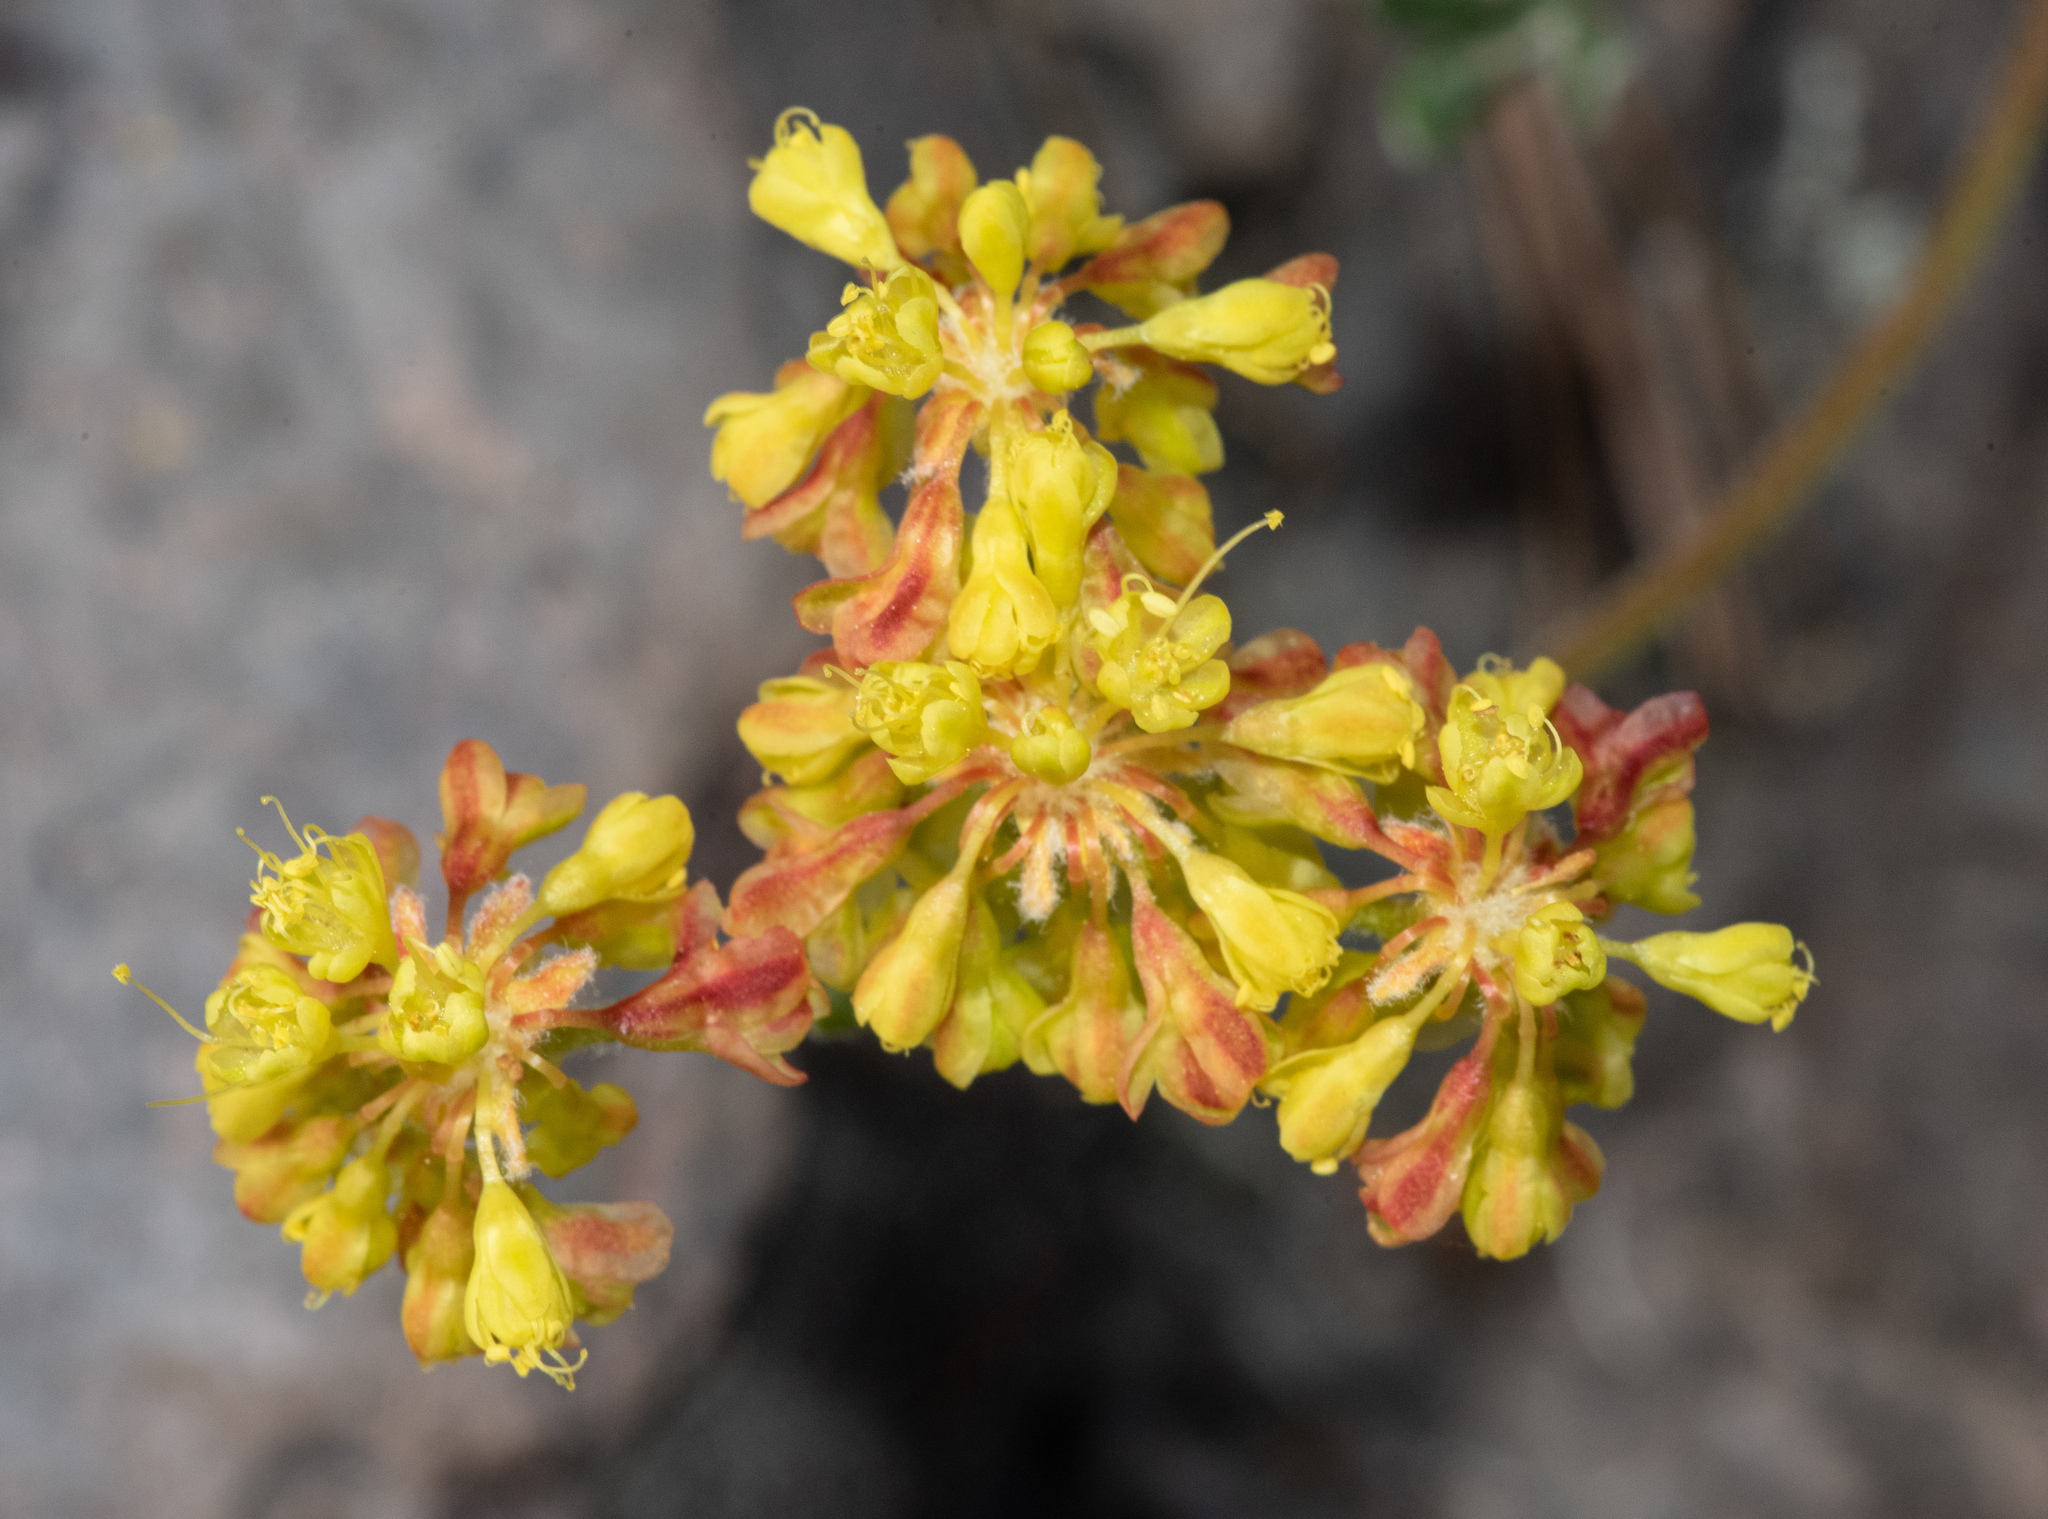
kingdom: Plantae
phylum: Tracheophyta
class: Magnoliopsida
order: Caryophyllales
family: Polygonaceae
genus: Eriogonum
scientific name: Eriogonum umbellatum
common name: Sulfur-buckwheat
